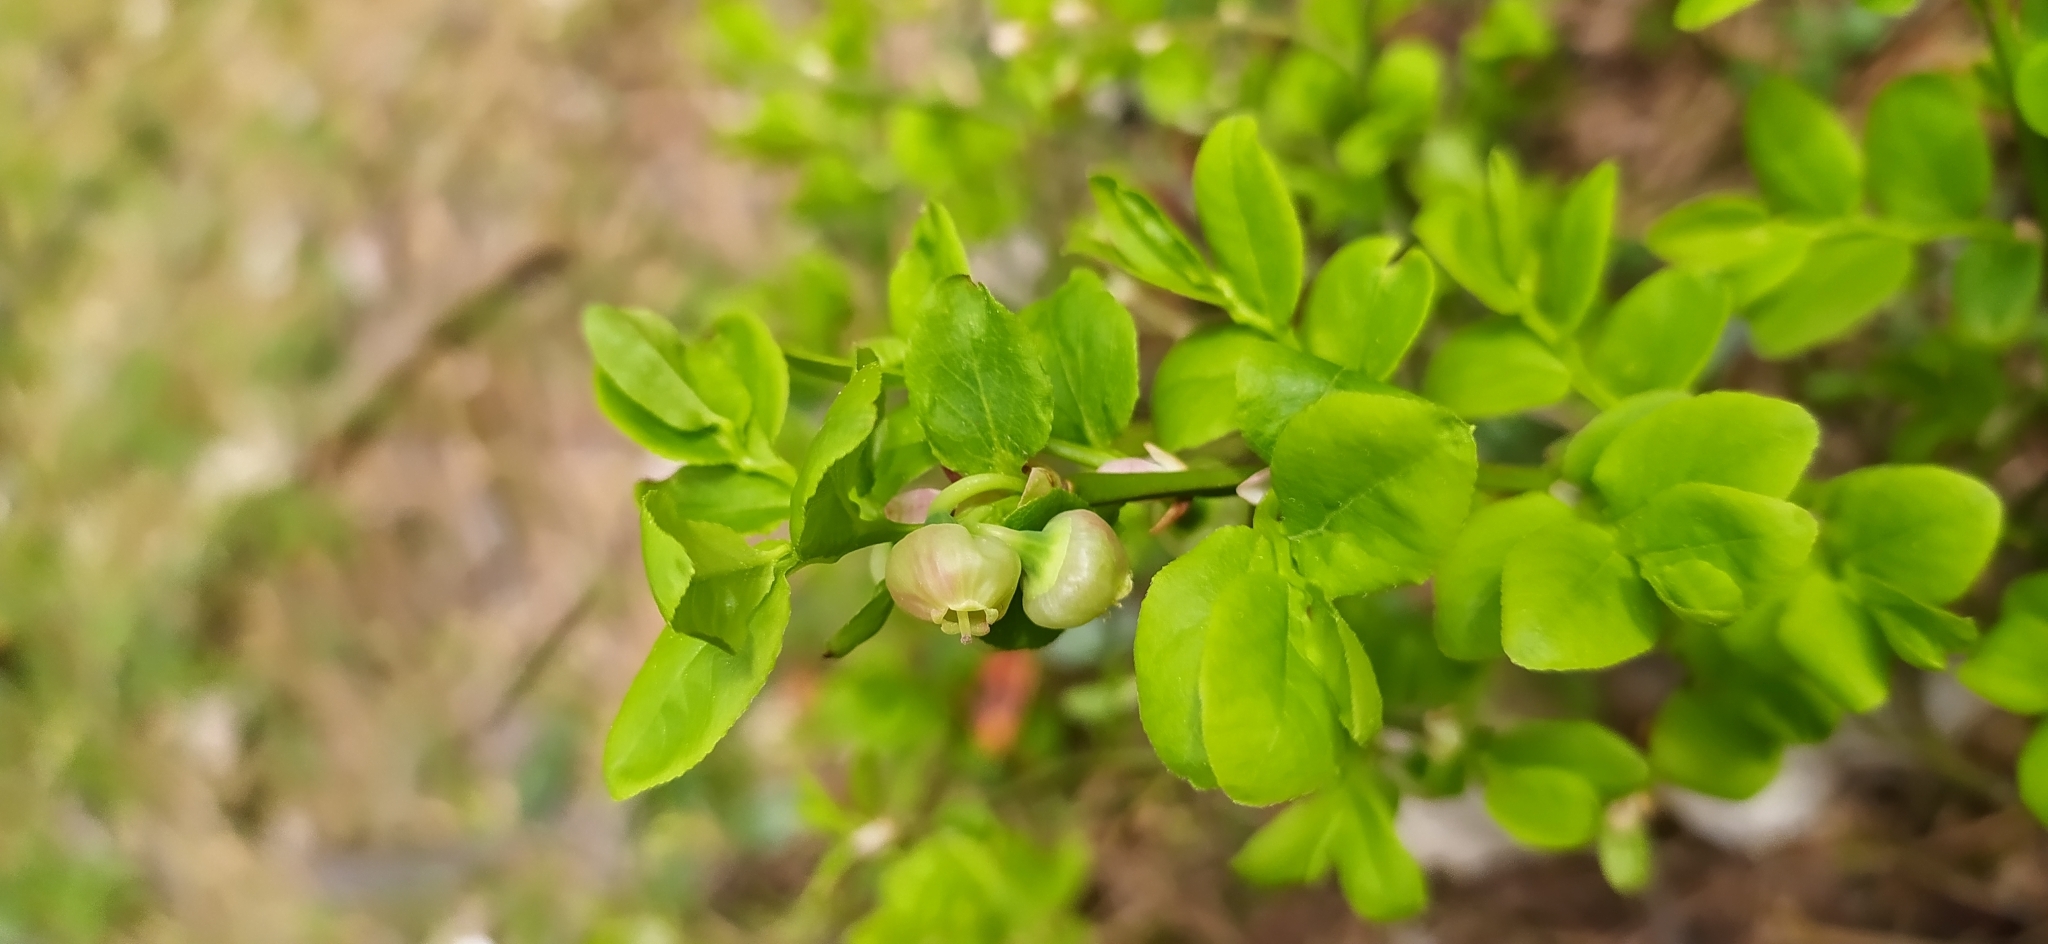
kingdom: Plantae
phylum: Tracheophyta
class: Magnoliopsida
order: Ericales
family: Ericaceae
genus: Vaccinium
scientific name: Vaccinium myrtillus
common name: Bilberry
